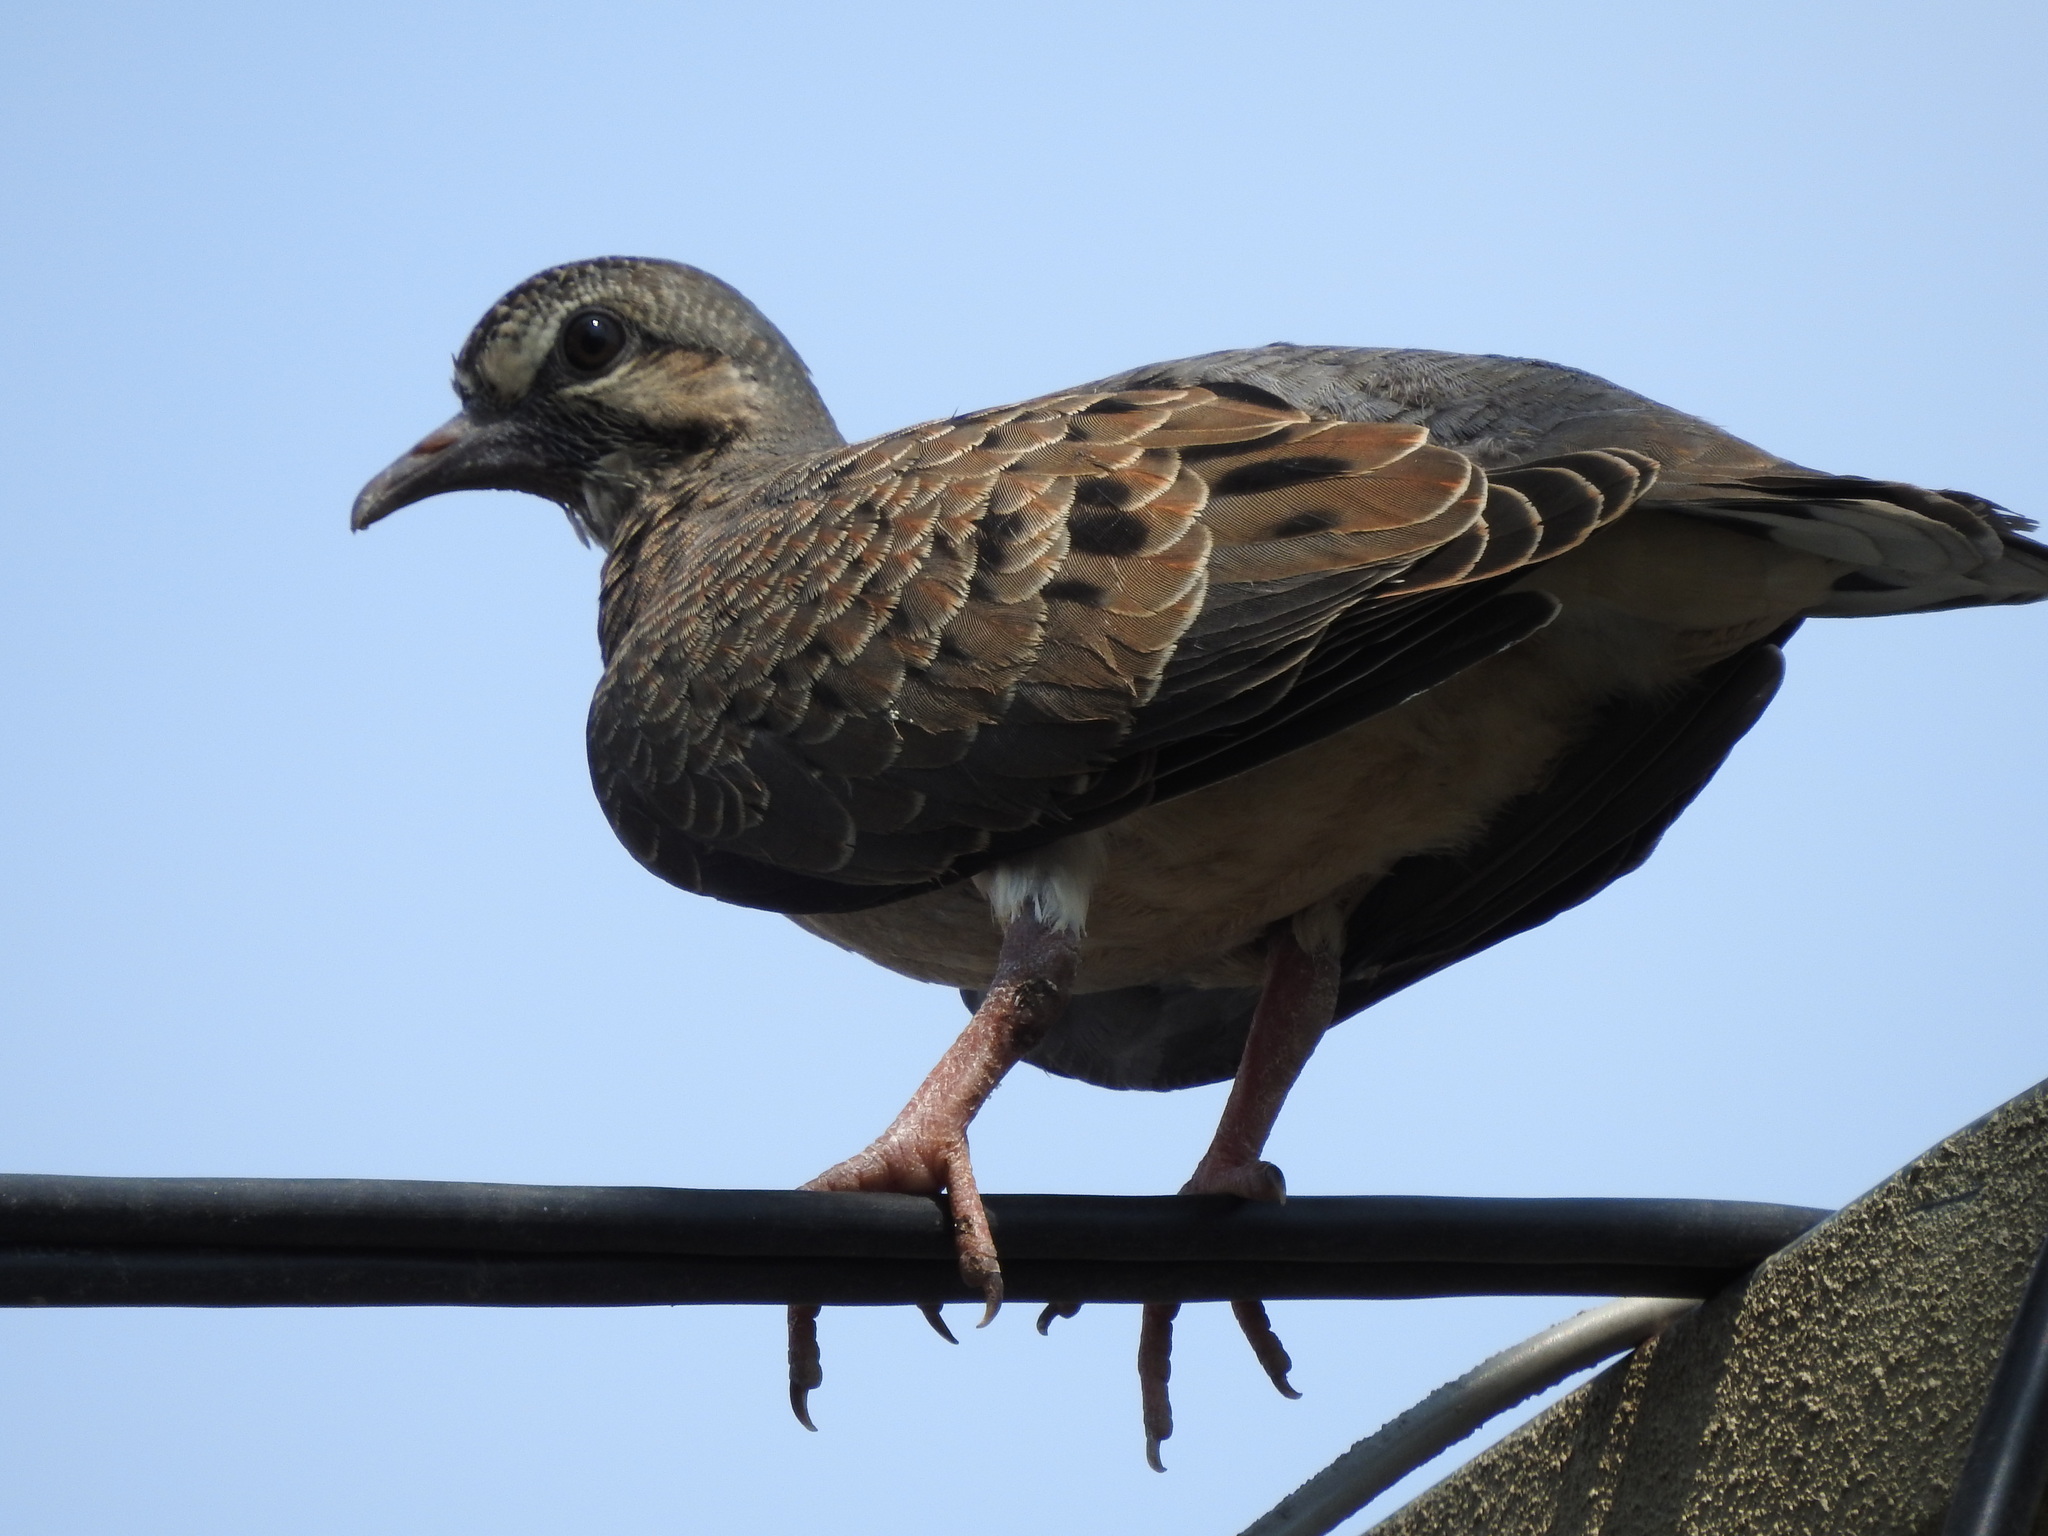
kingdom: Animalia
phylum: Chordata
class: Aves
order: Columbiformes
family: Columbidae
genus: Zenaida
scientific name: Zenaida auriculata
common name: Eared dove
